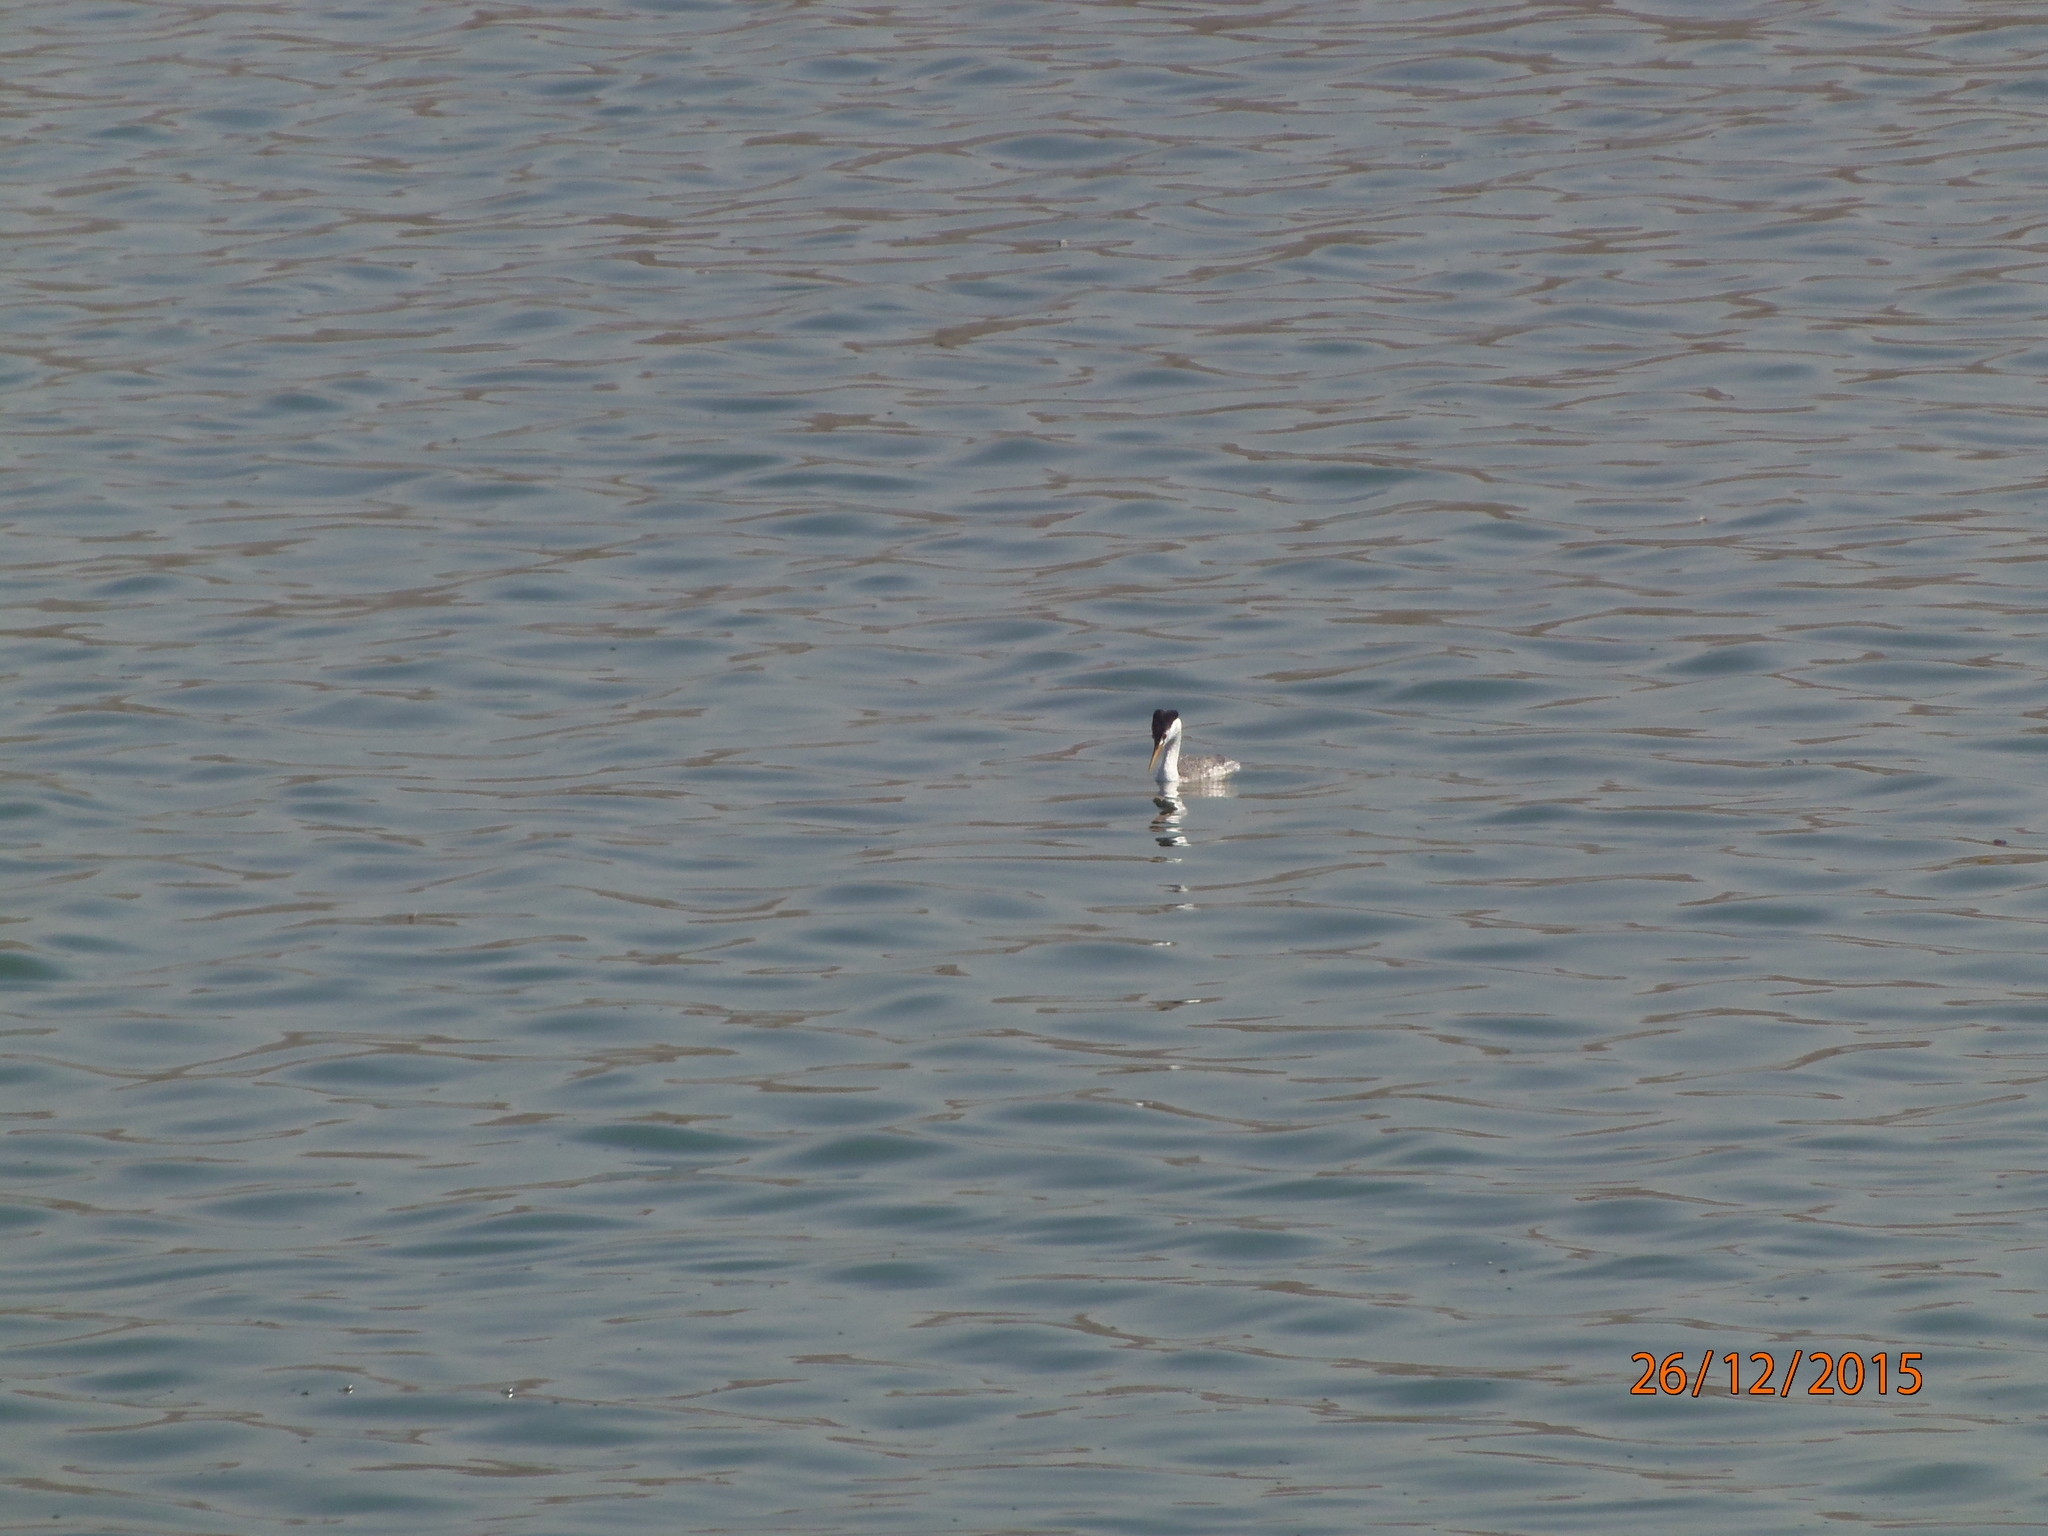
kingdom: Animalia
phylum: Chordata
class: Aves
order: Podicipediformes
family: Podicipedidae
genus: Aechmophorus
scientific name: Aechmophorus clarkii
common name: Clark's grebe
